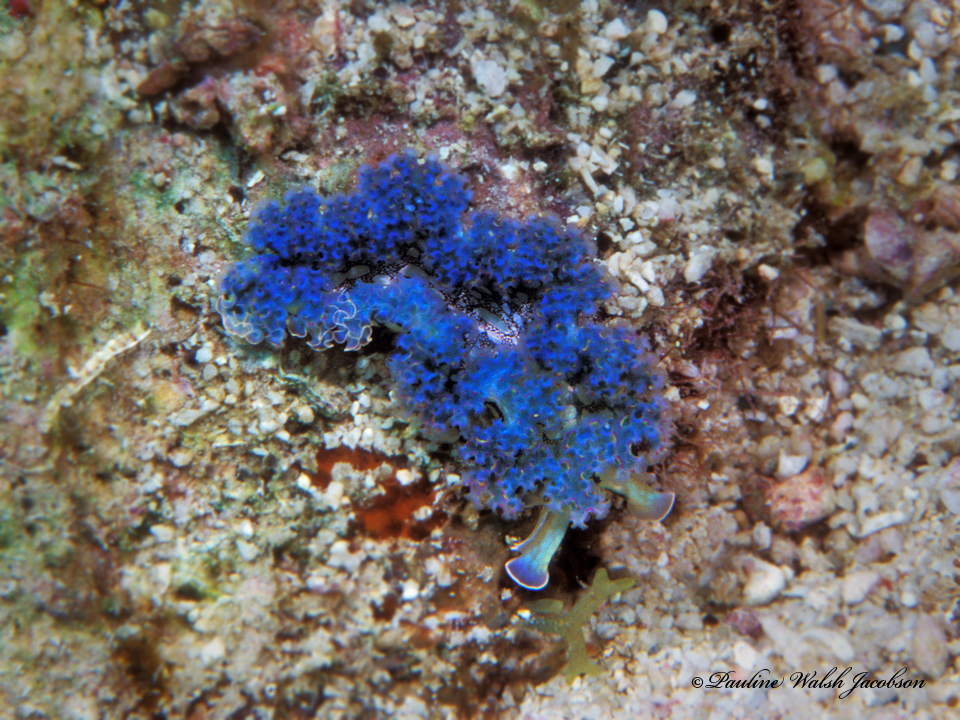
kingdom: Animalia
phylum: Mollusca
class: Gastropoda
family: Plakobranchidae
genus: Elysia
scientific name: Elysia crispata
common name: Lettuce slug
